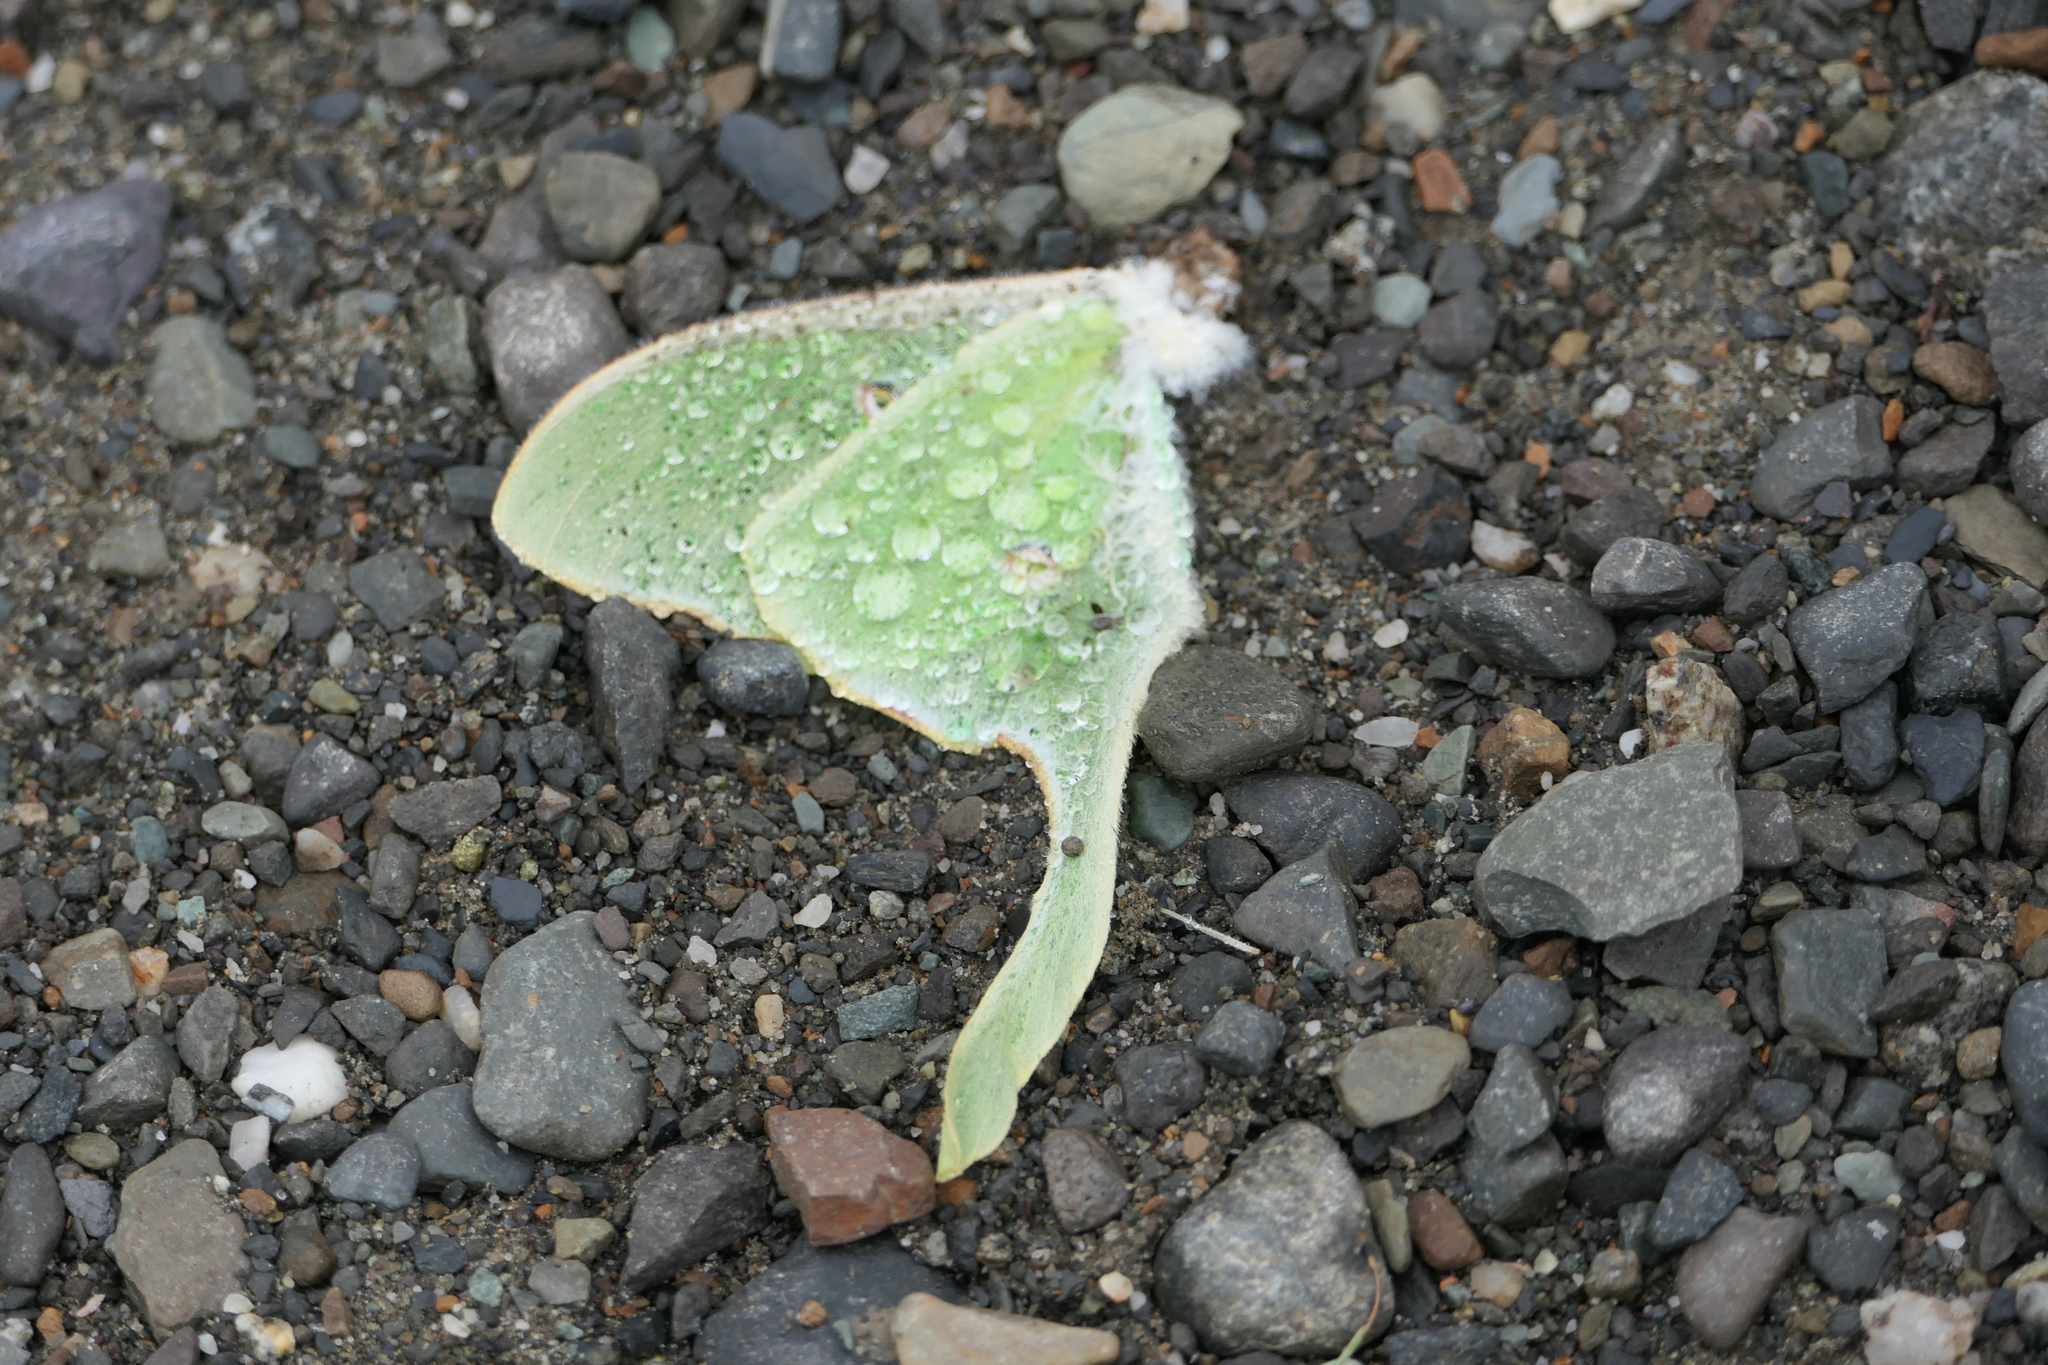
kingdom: Animalia
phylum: Arthropoda
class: Insecta
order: Lepidoptera
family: Saturniidae
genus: Actias
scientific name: Actias luna
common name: Luna moth
